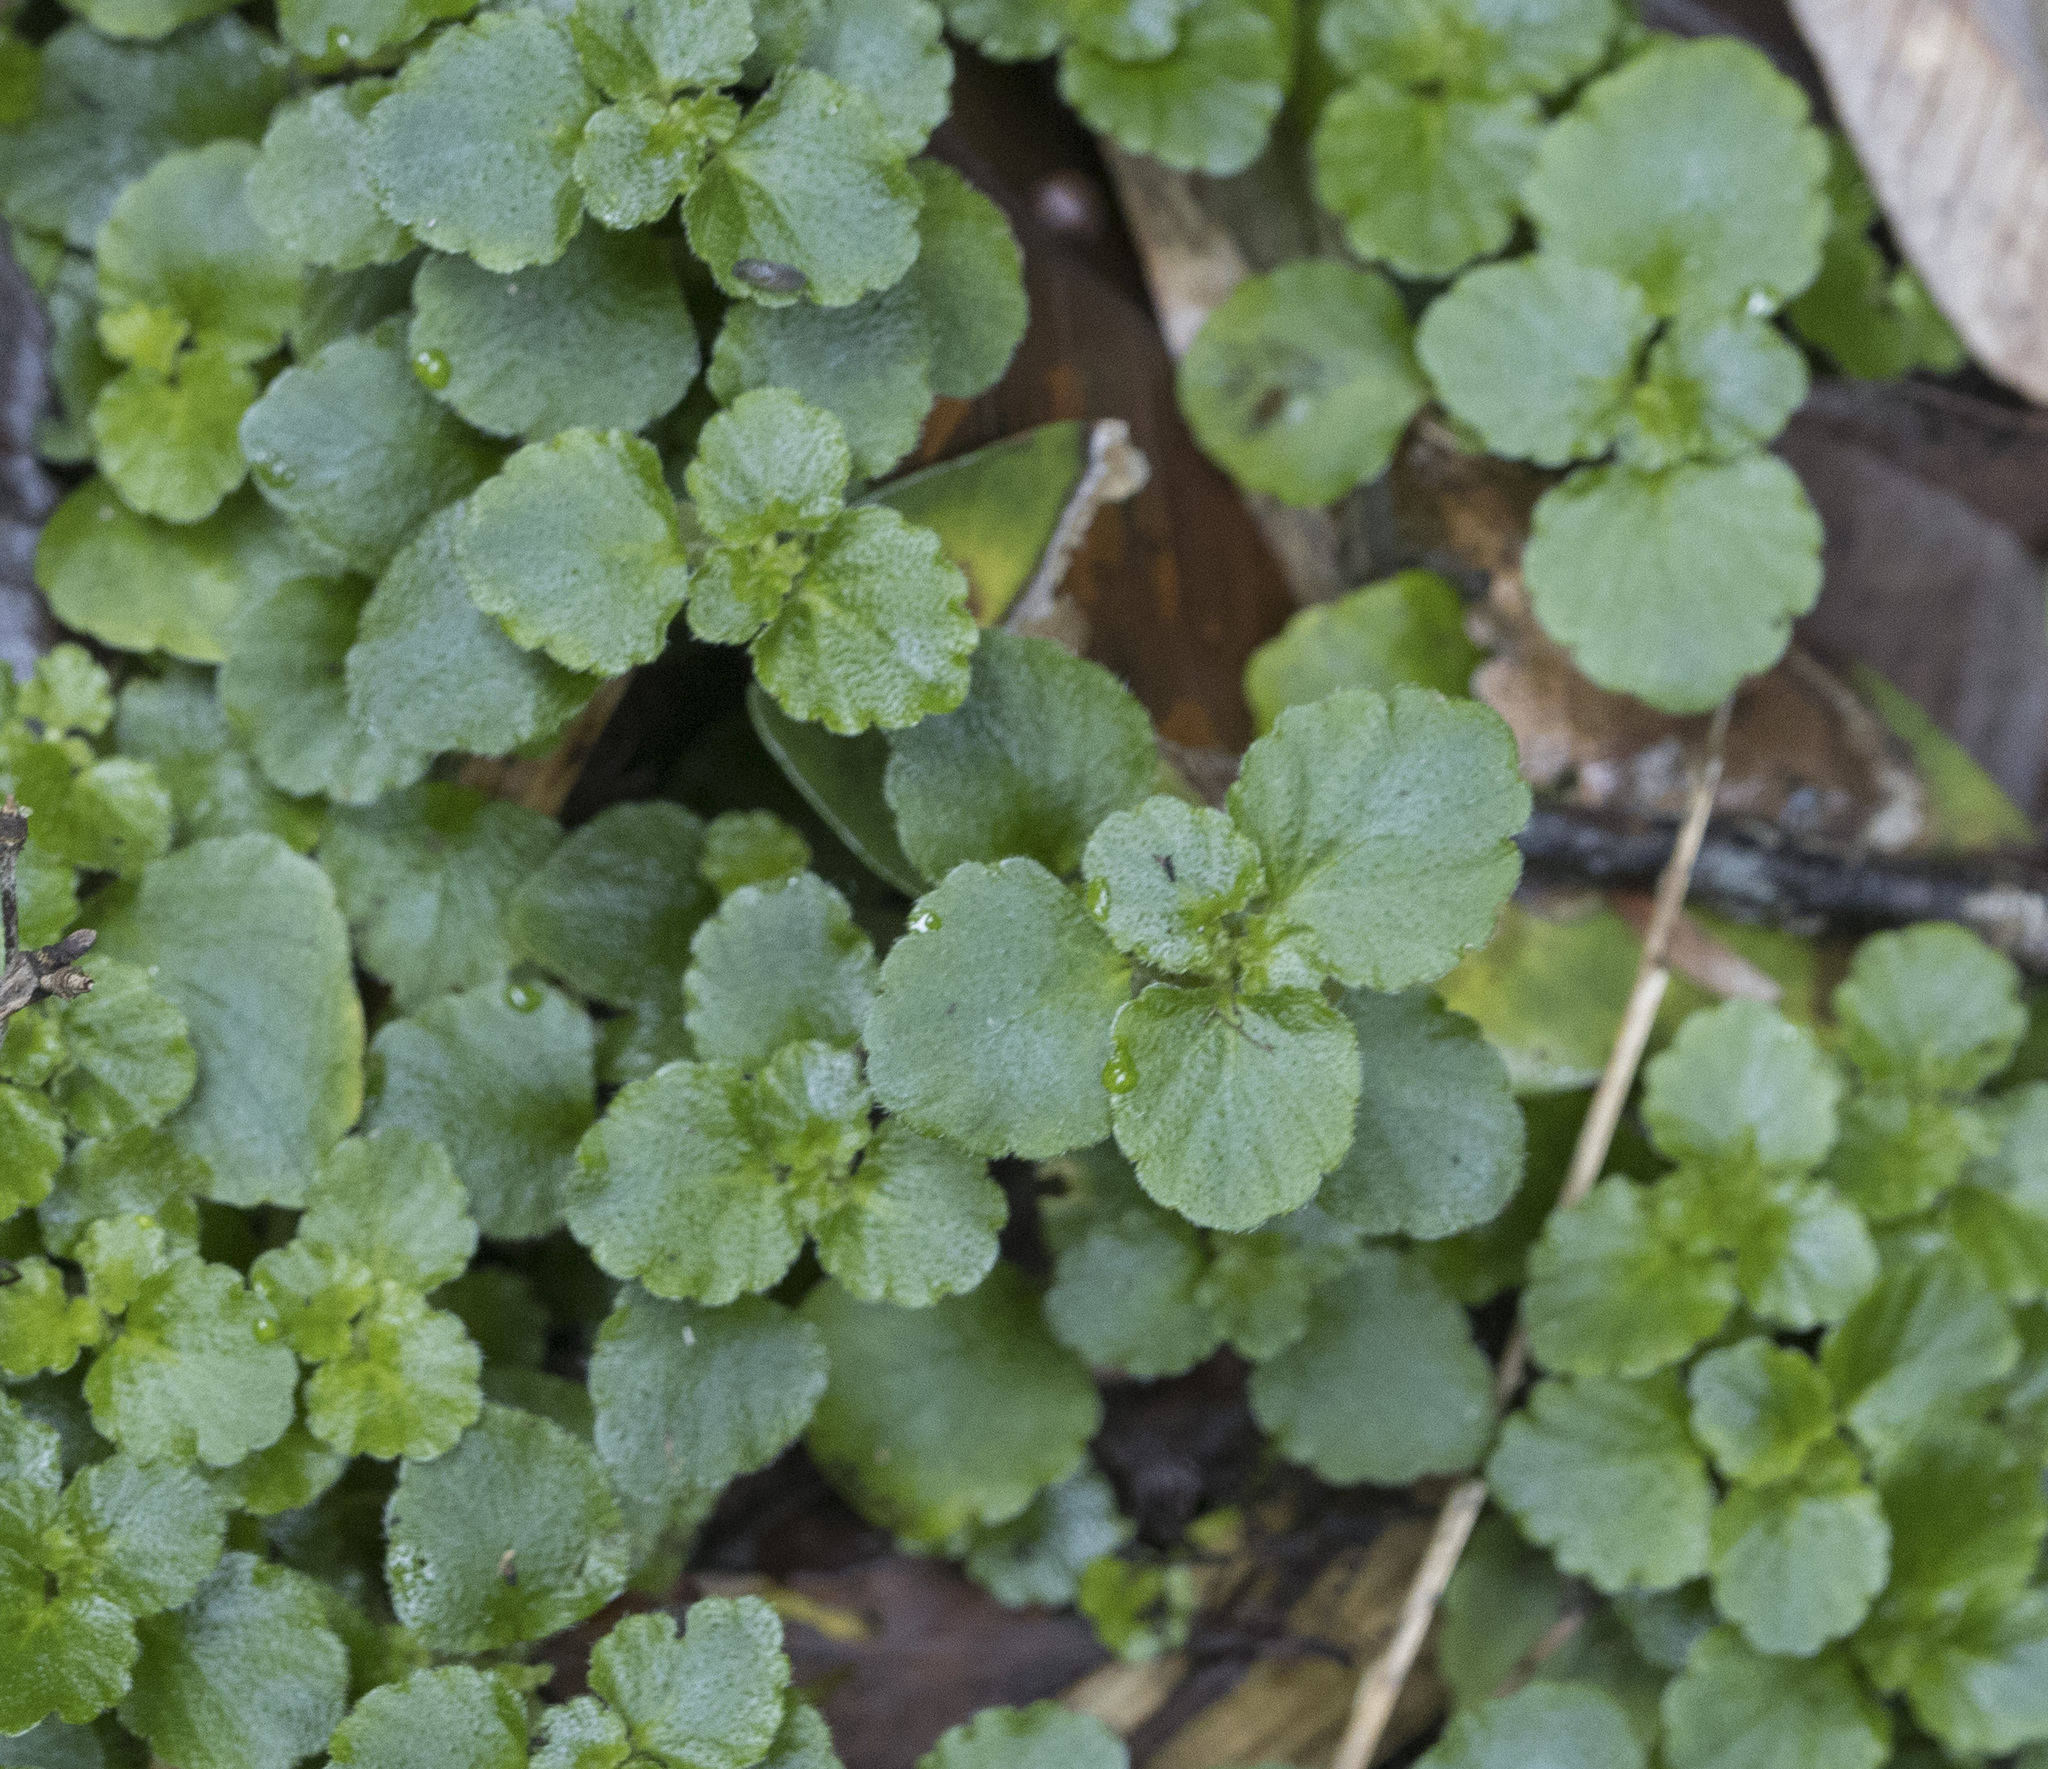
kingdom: Plantae
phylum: Tracheophyta
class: Magnoliopsida
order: Malpighiales
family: Euphorbiaceae
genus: Dysopsis
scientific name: Dysopsis glechomoides
